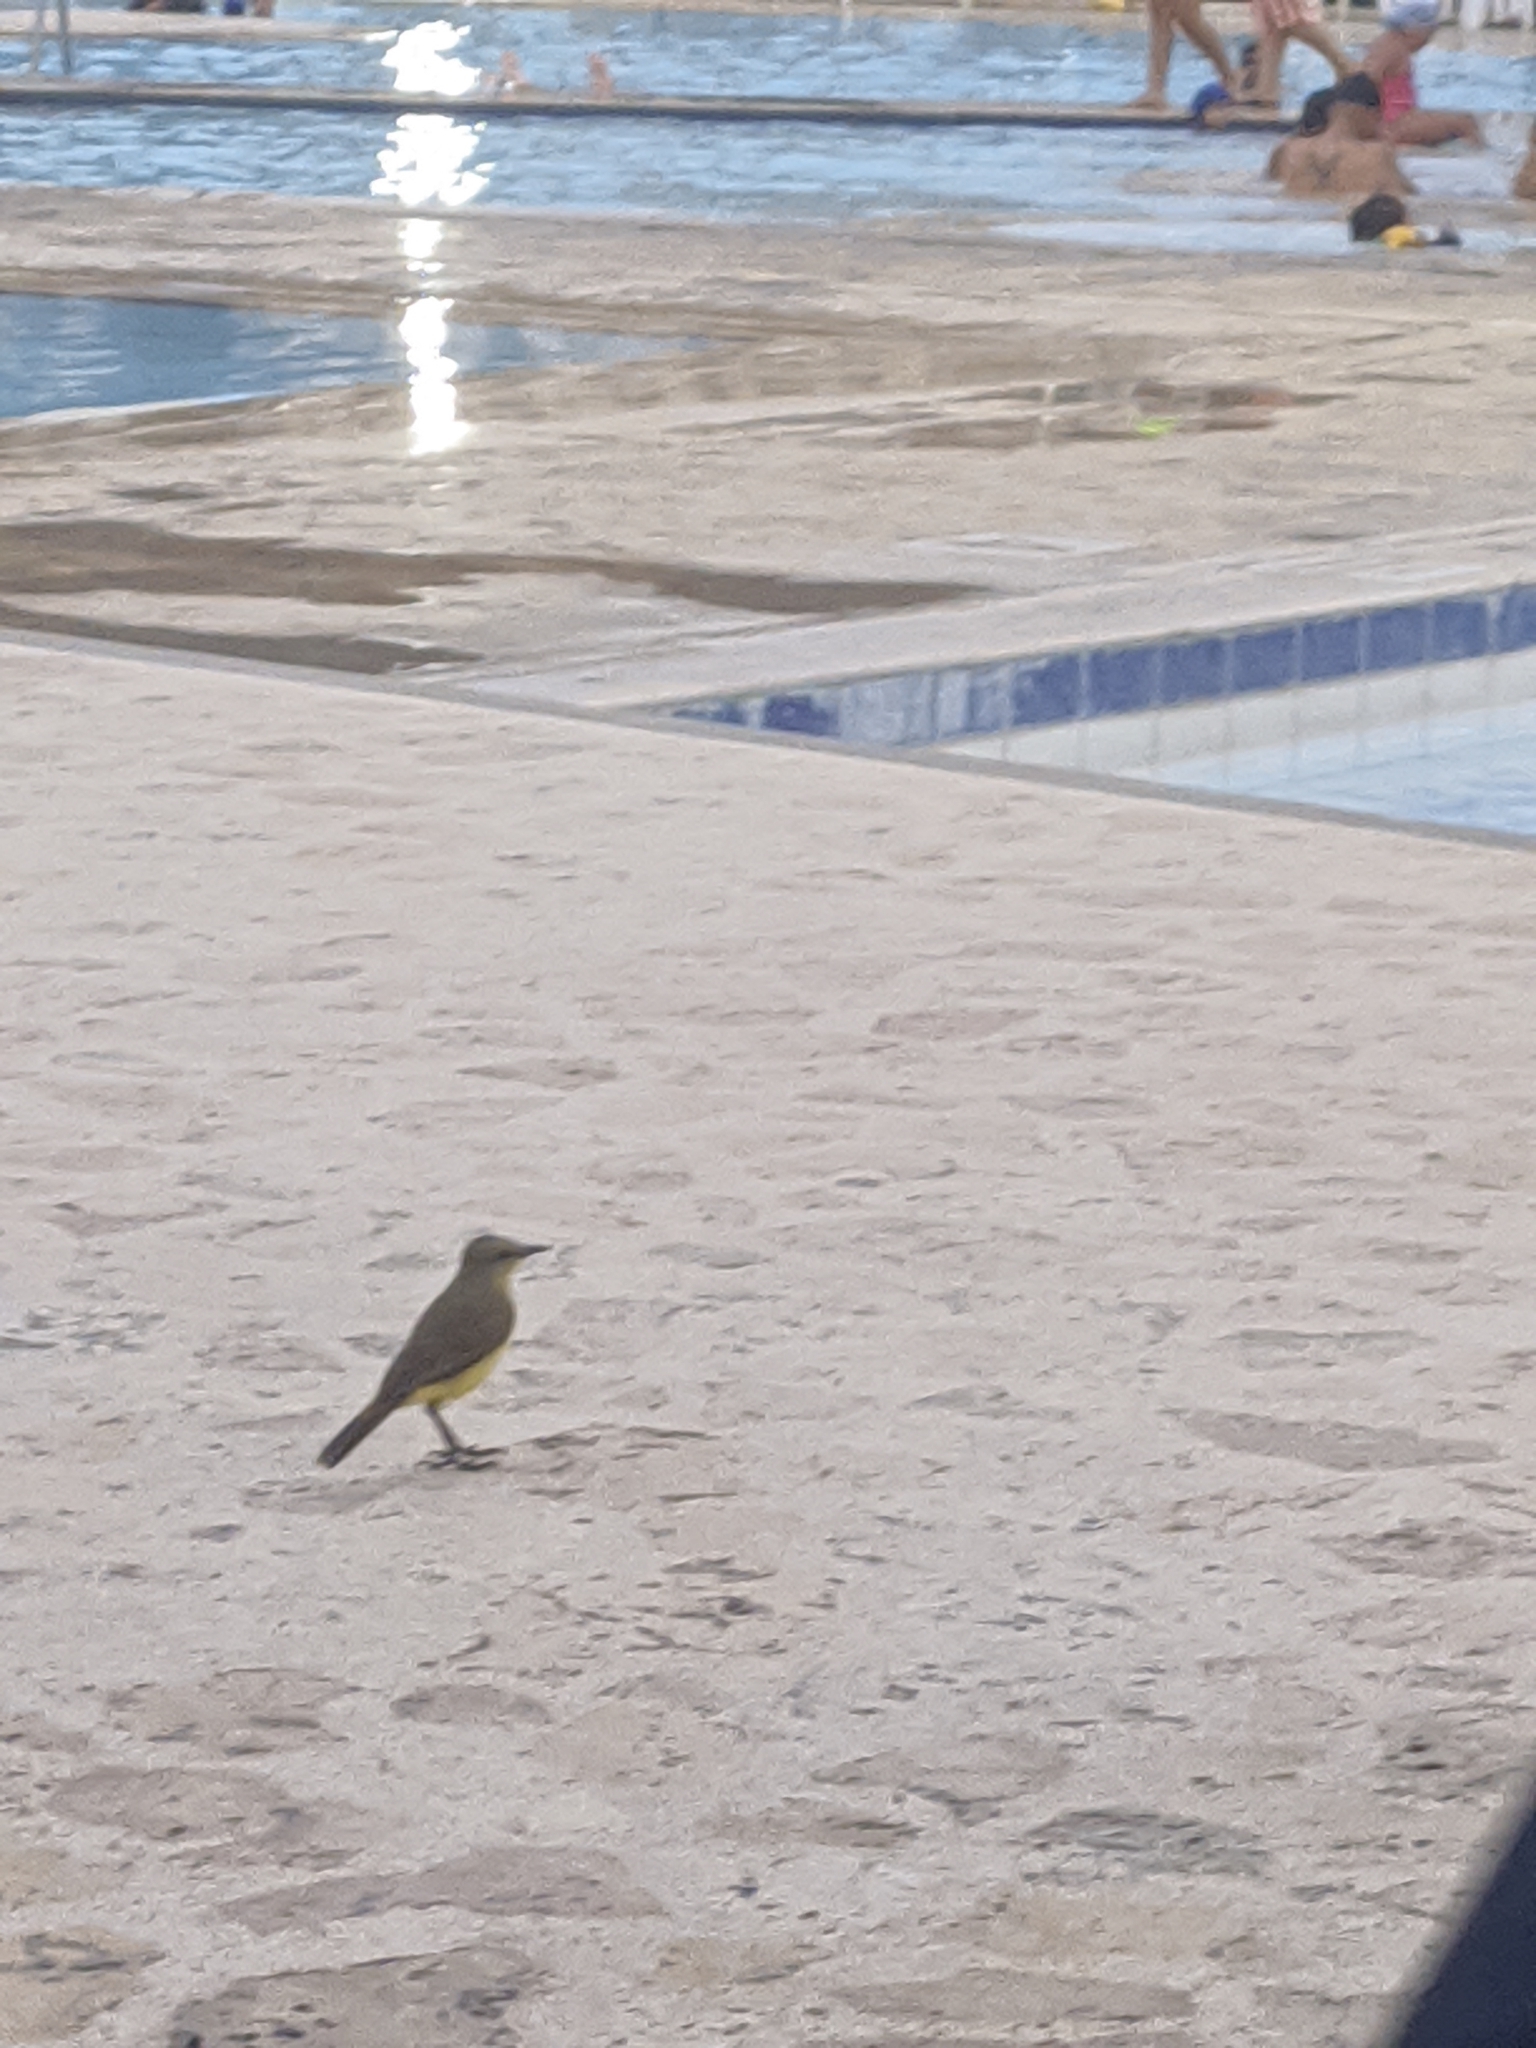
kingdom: Animalia
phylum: Chordata
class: Aves
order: Passeriformes
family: Tyrannidae
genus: Machetornis
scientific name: Machetornis rixosa
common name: Cattle tyrant
